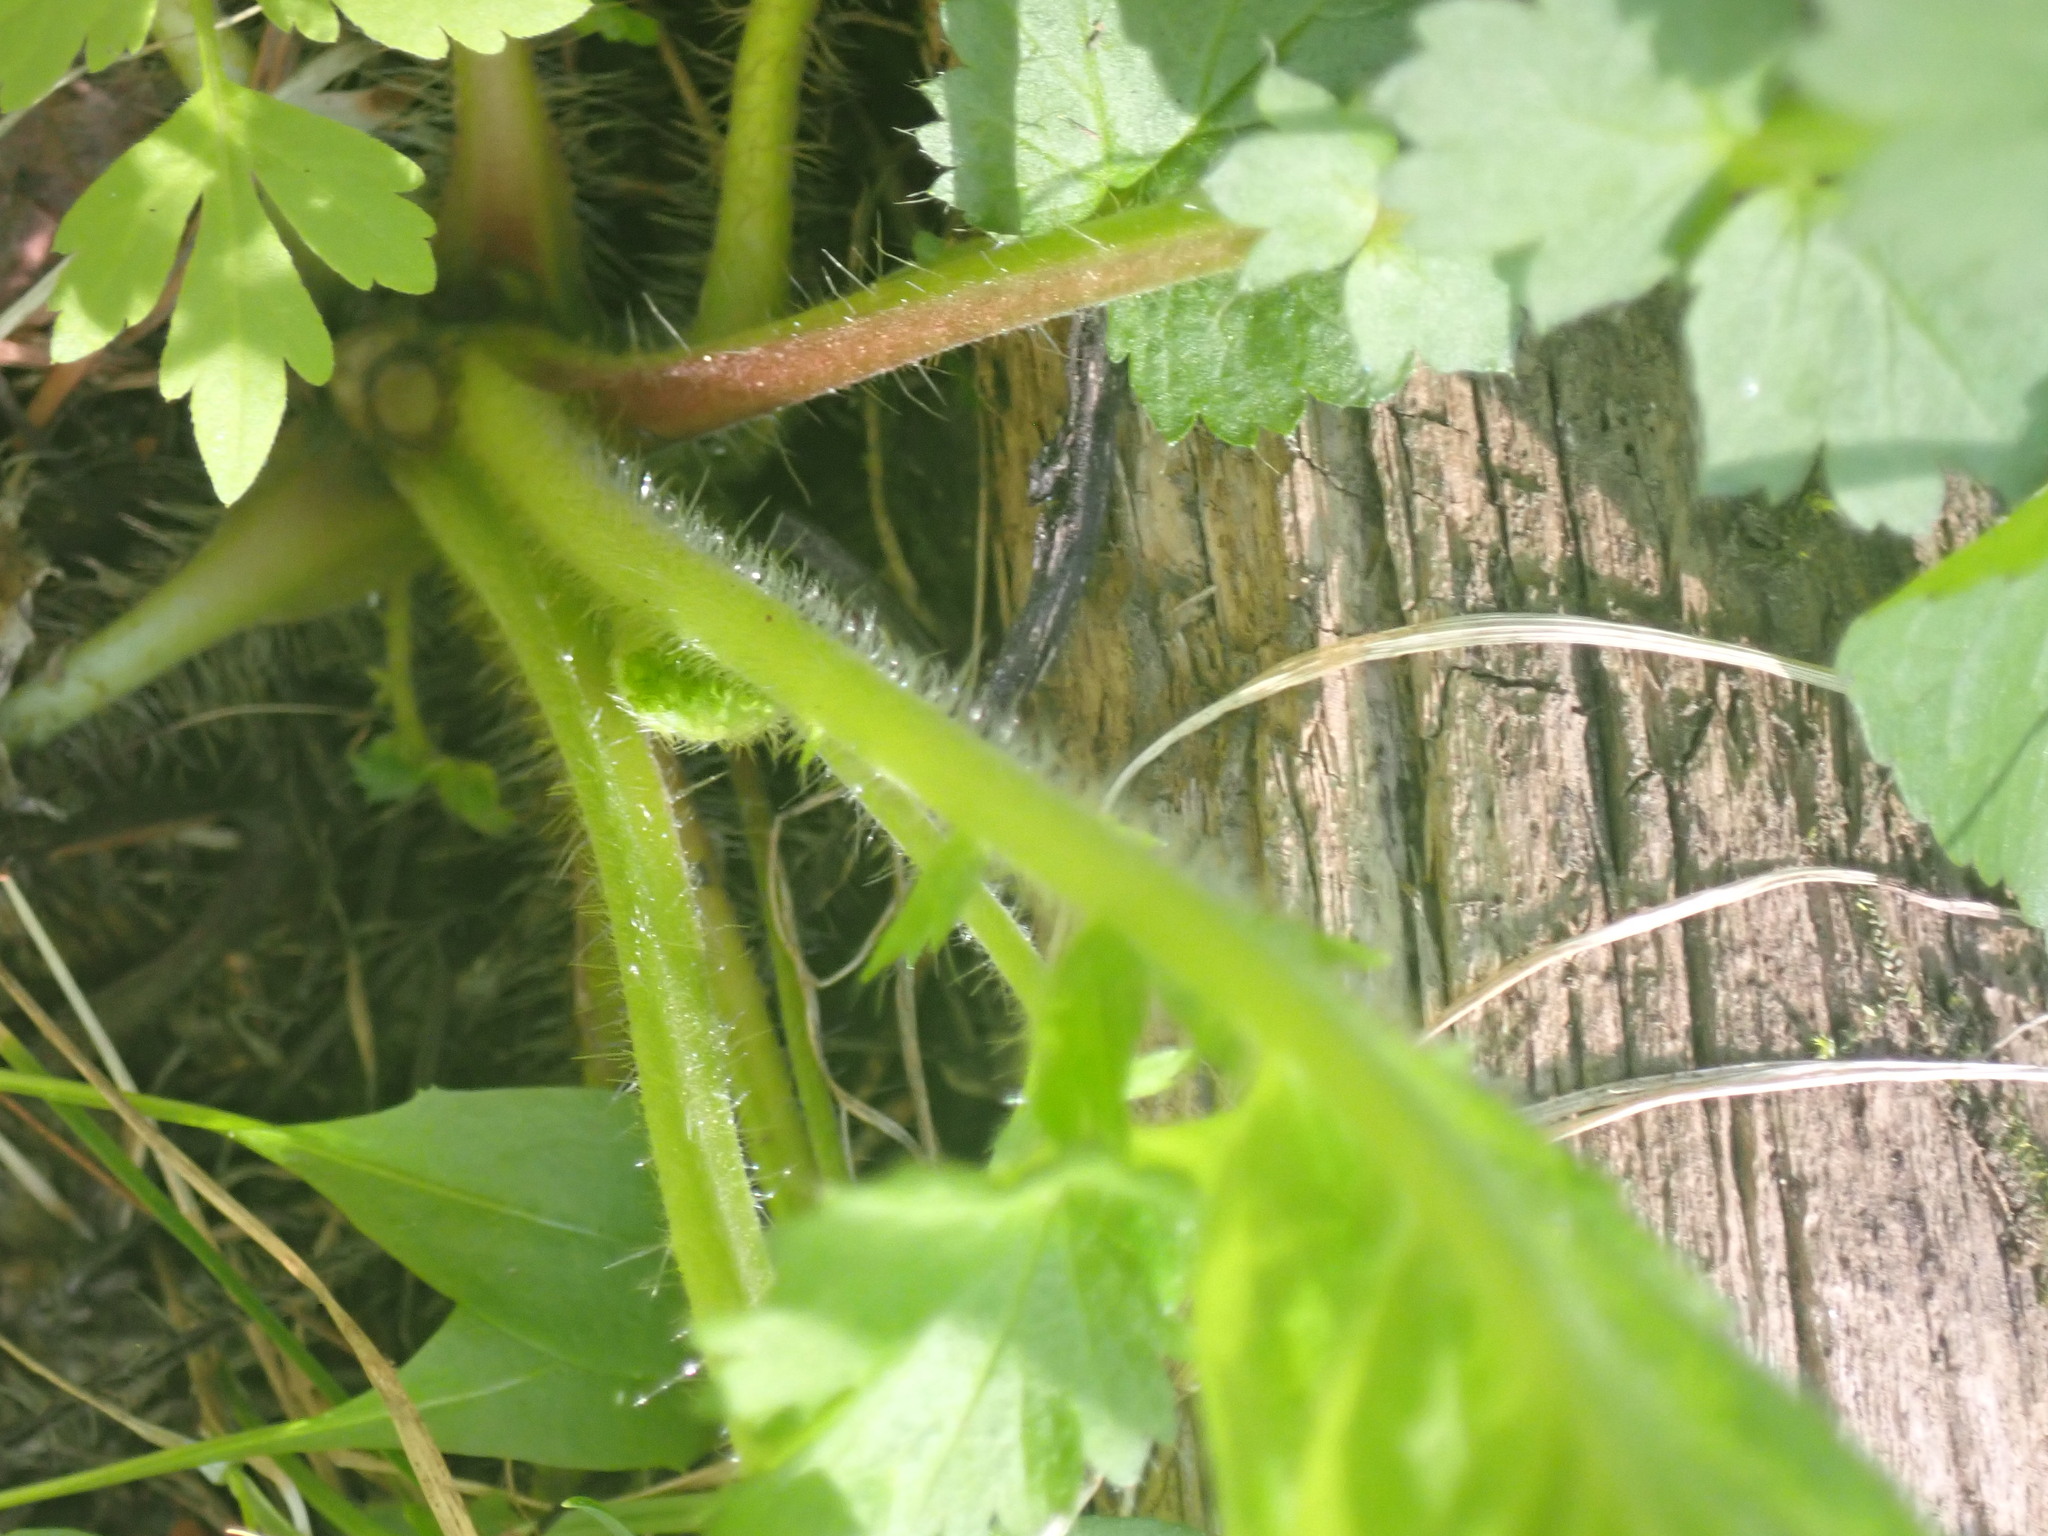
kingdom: Plantae
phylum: Tracheophyta
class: Magnoliopsida
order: Rosales
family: Rosaceae
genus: Geum
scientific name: Geum macrophyllum
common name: Large-leaved avens
